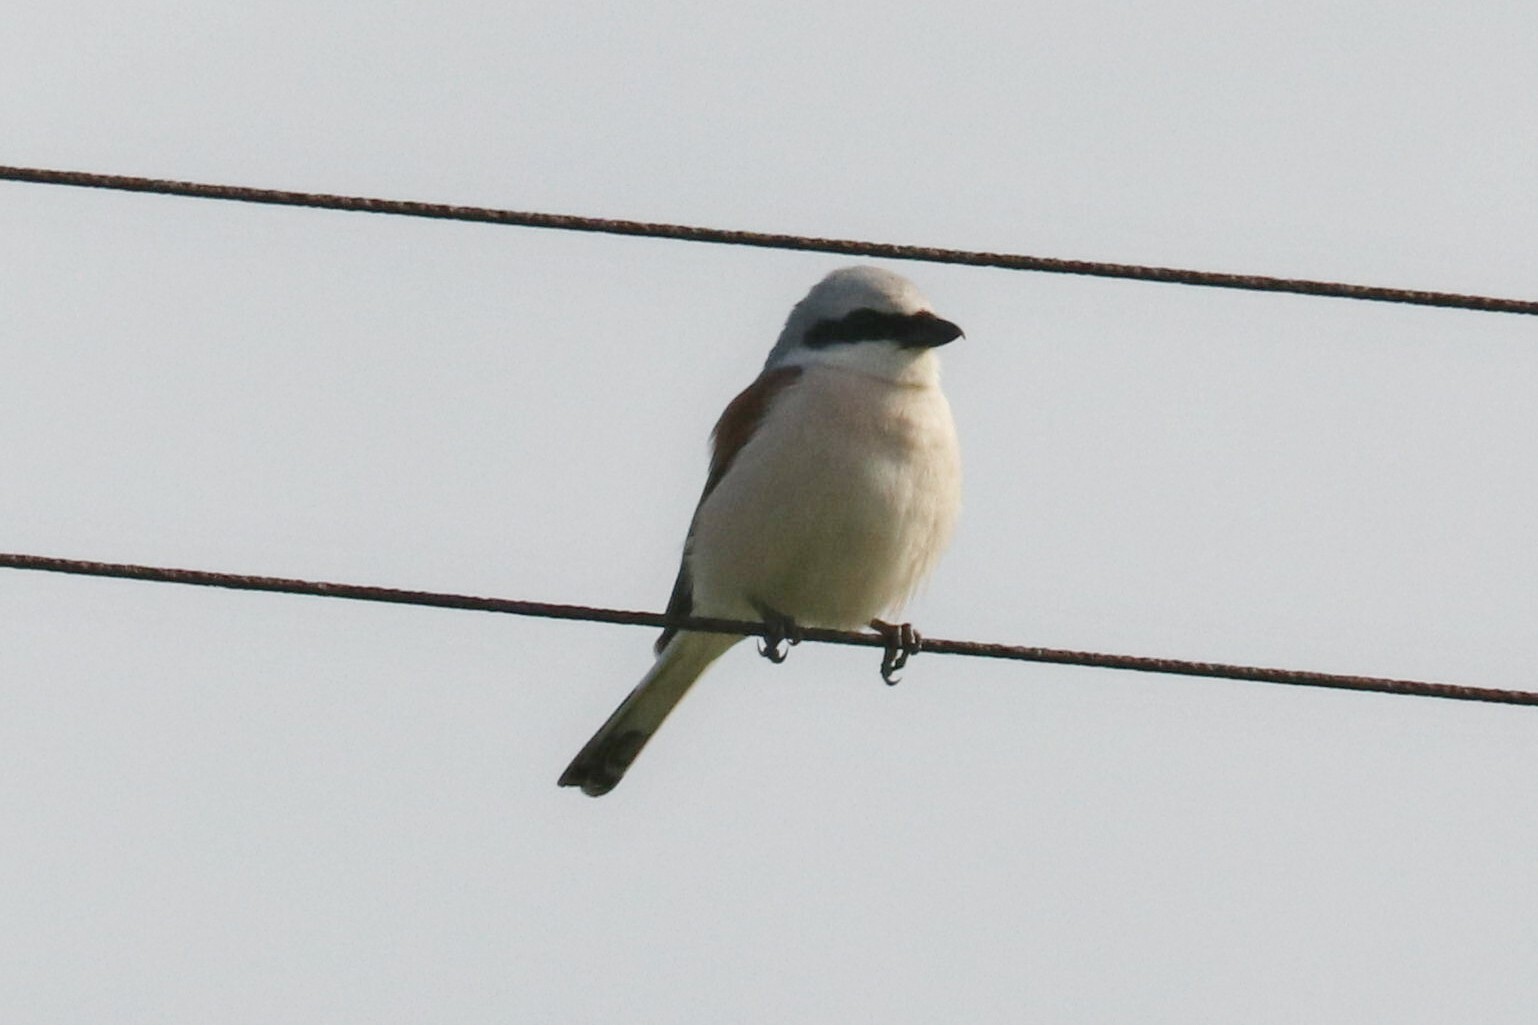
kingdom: Animalia
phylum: Chordata
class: Aves
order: Passeriformes
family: Laniidae
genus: Lanius
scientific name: Lanius collurio
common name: Red-backed shrike
